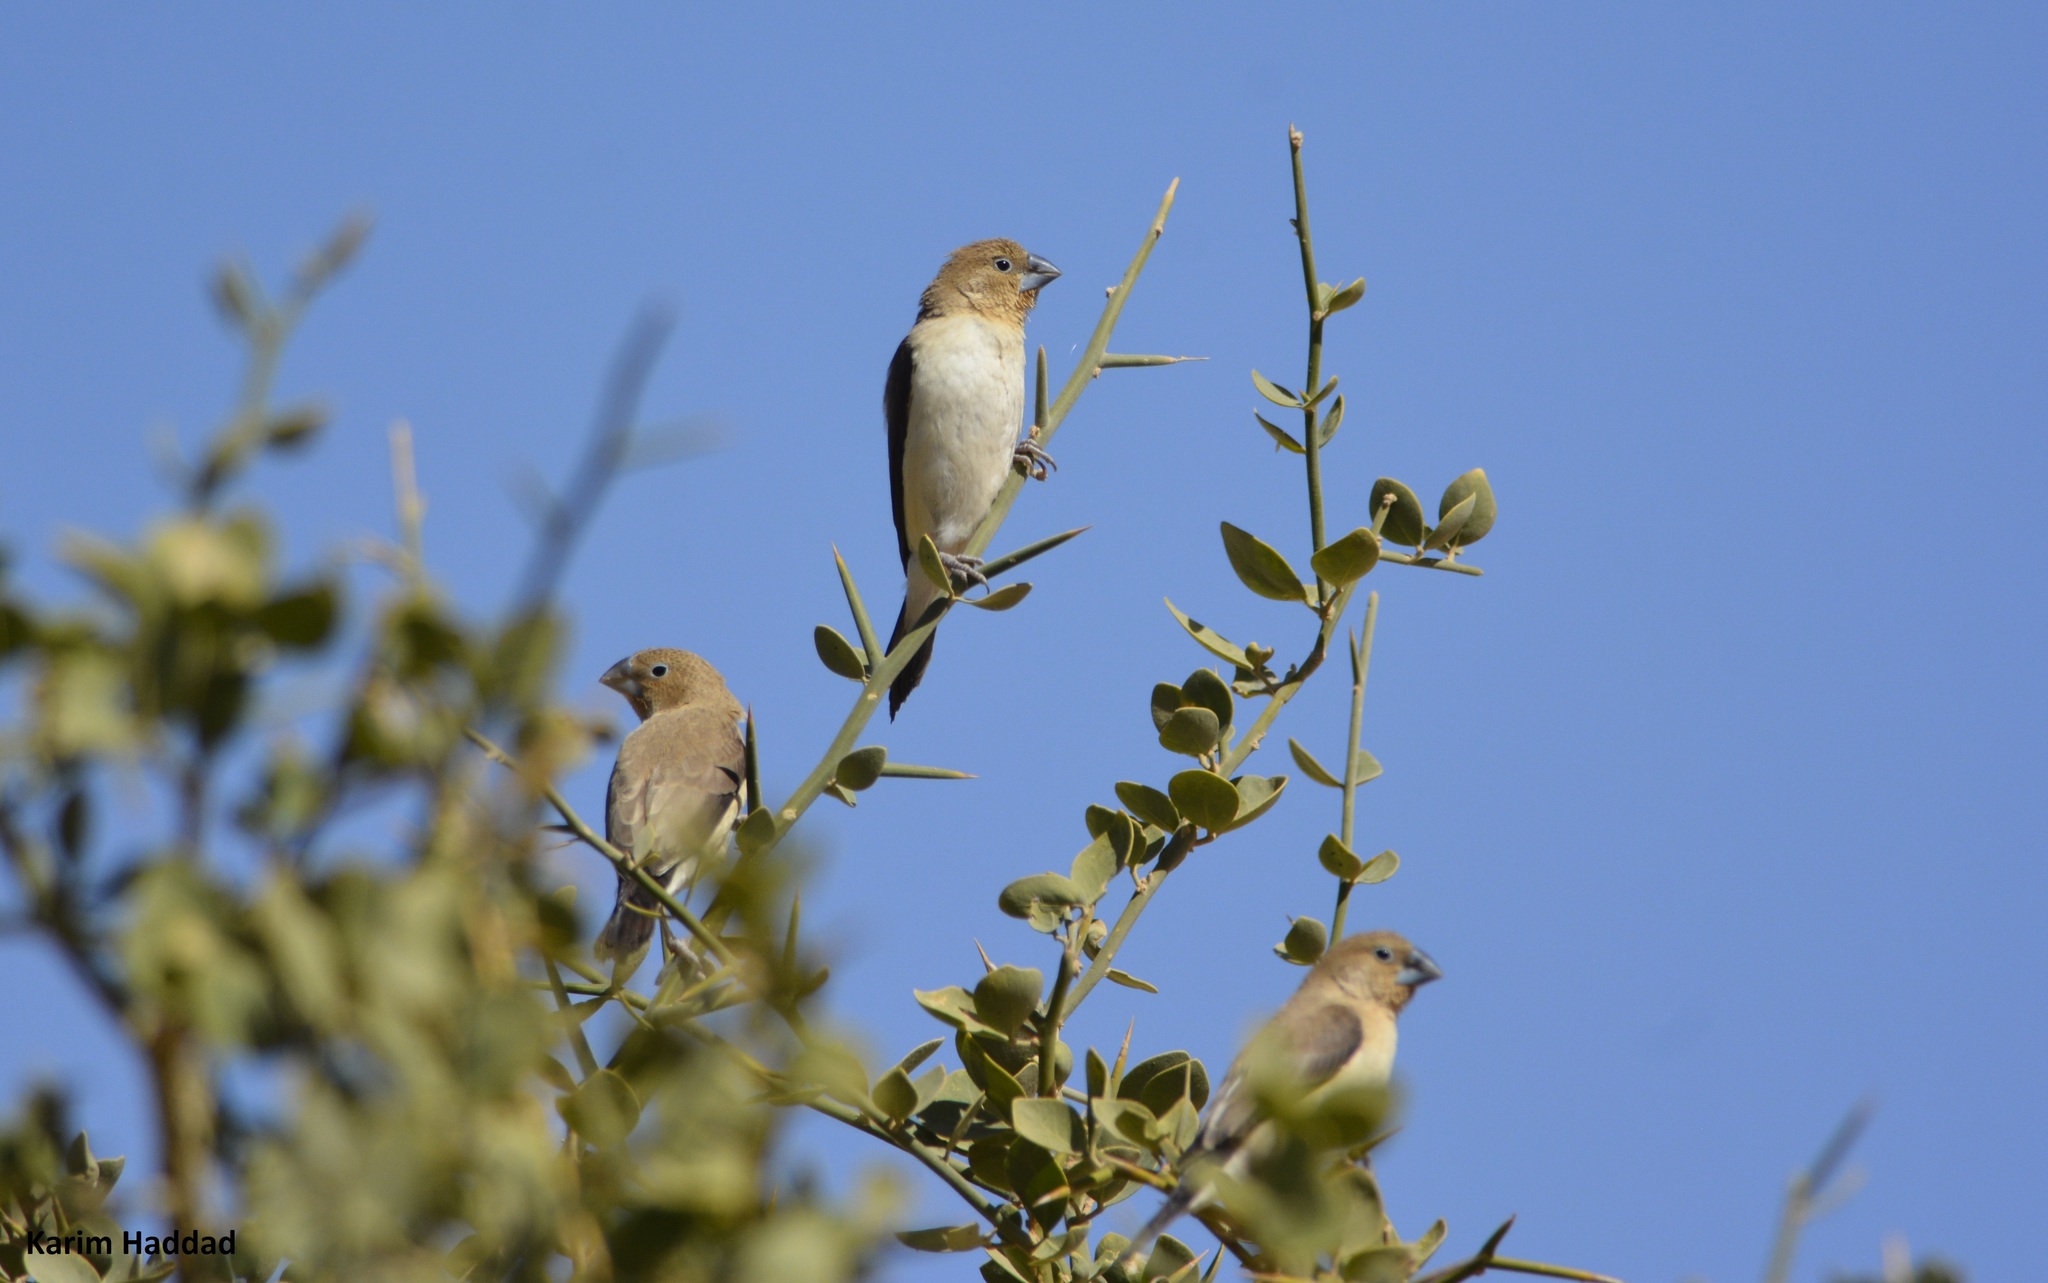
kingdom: Animalia
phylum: Chordata
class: Aves
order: Passeriformes
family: Estrildidae
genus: Euodice
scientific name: Euodice cantans
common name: African silverbill
